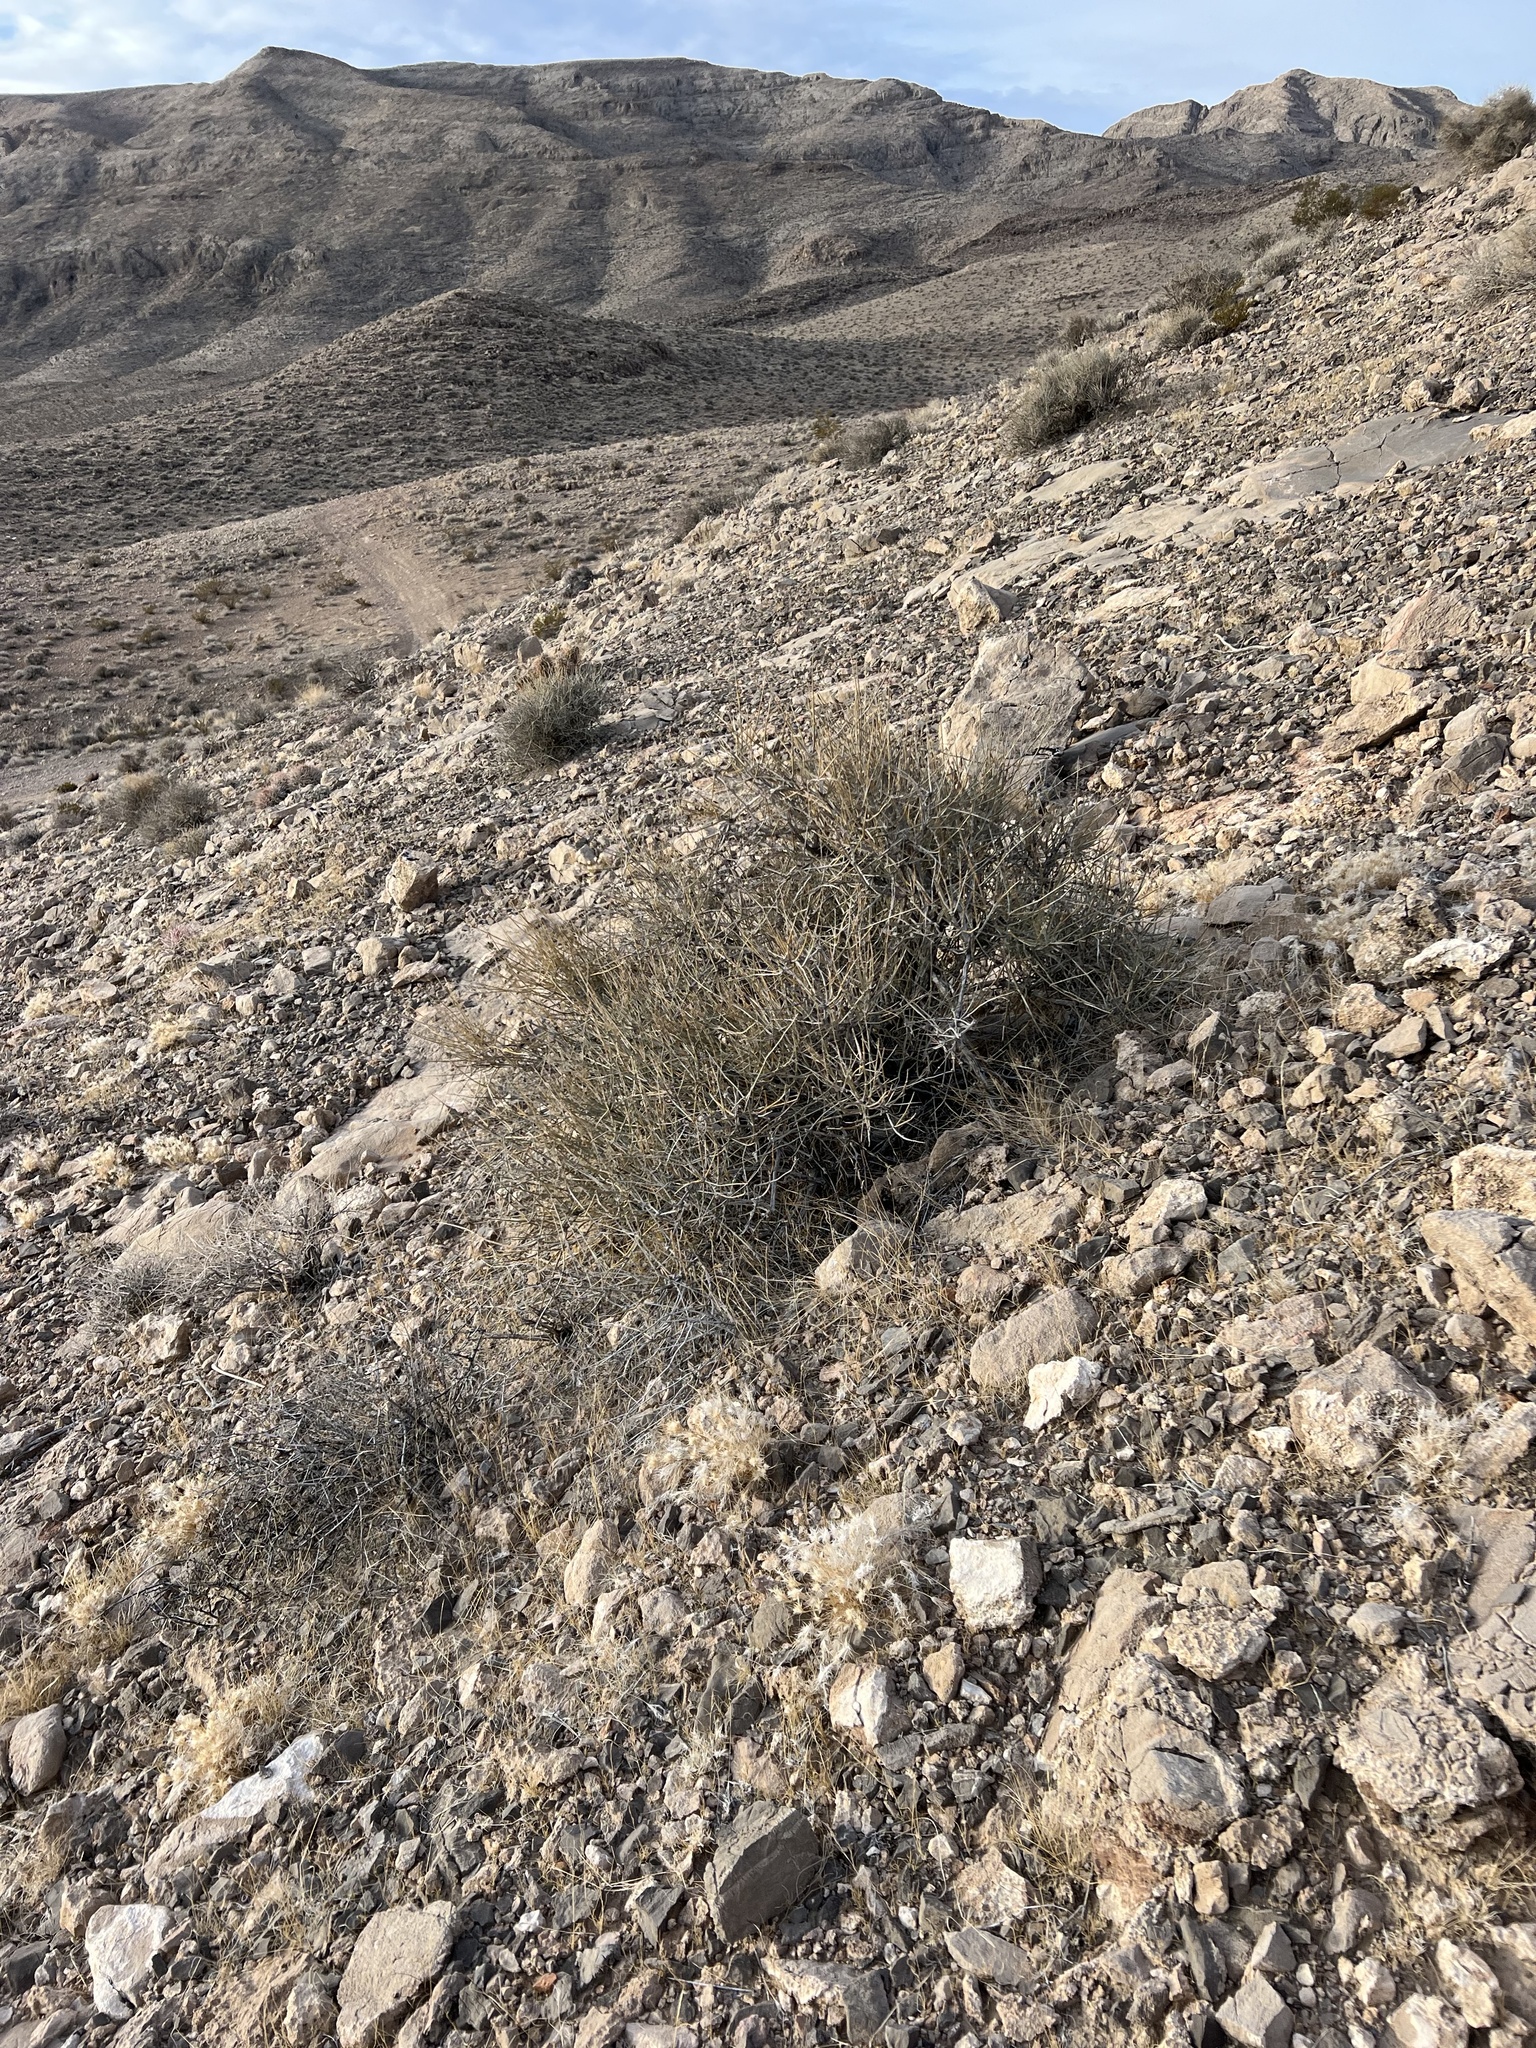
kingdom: Plantae
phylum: Tracheophyta
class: Gnetopsida
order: Ephedrales
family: Ephedraceae
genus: Ephedra
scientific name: Ephedra nevadensis
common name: Gray ephedra
